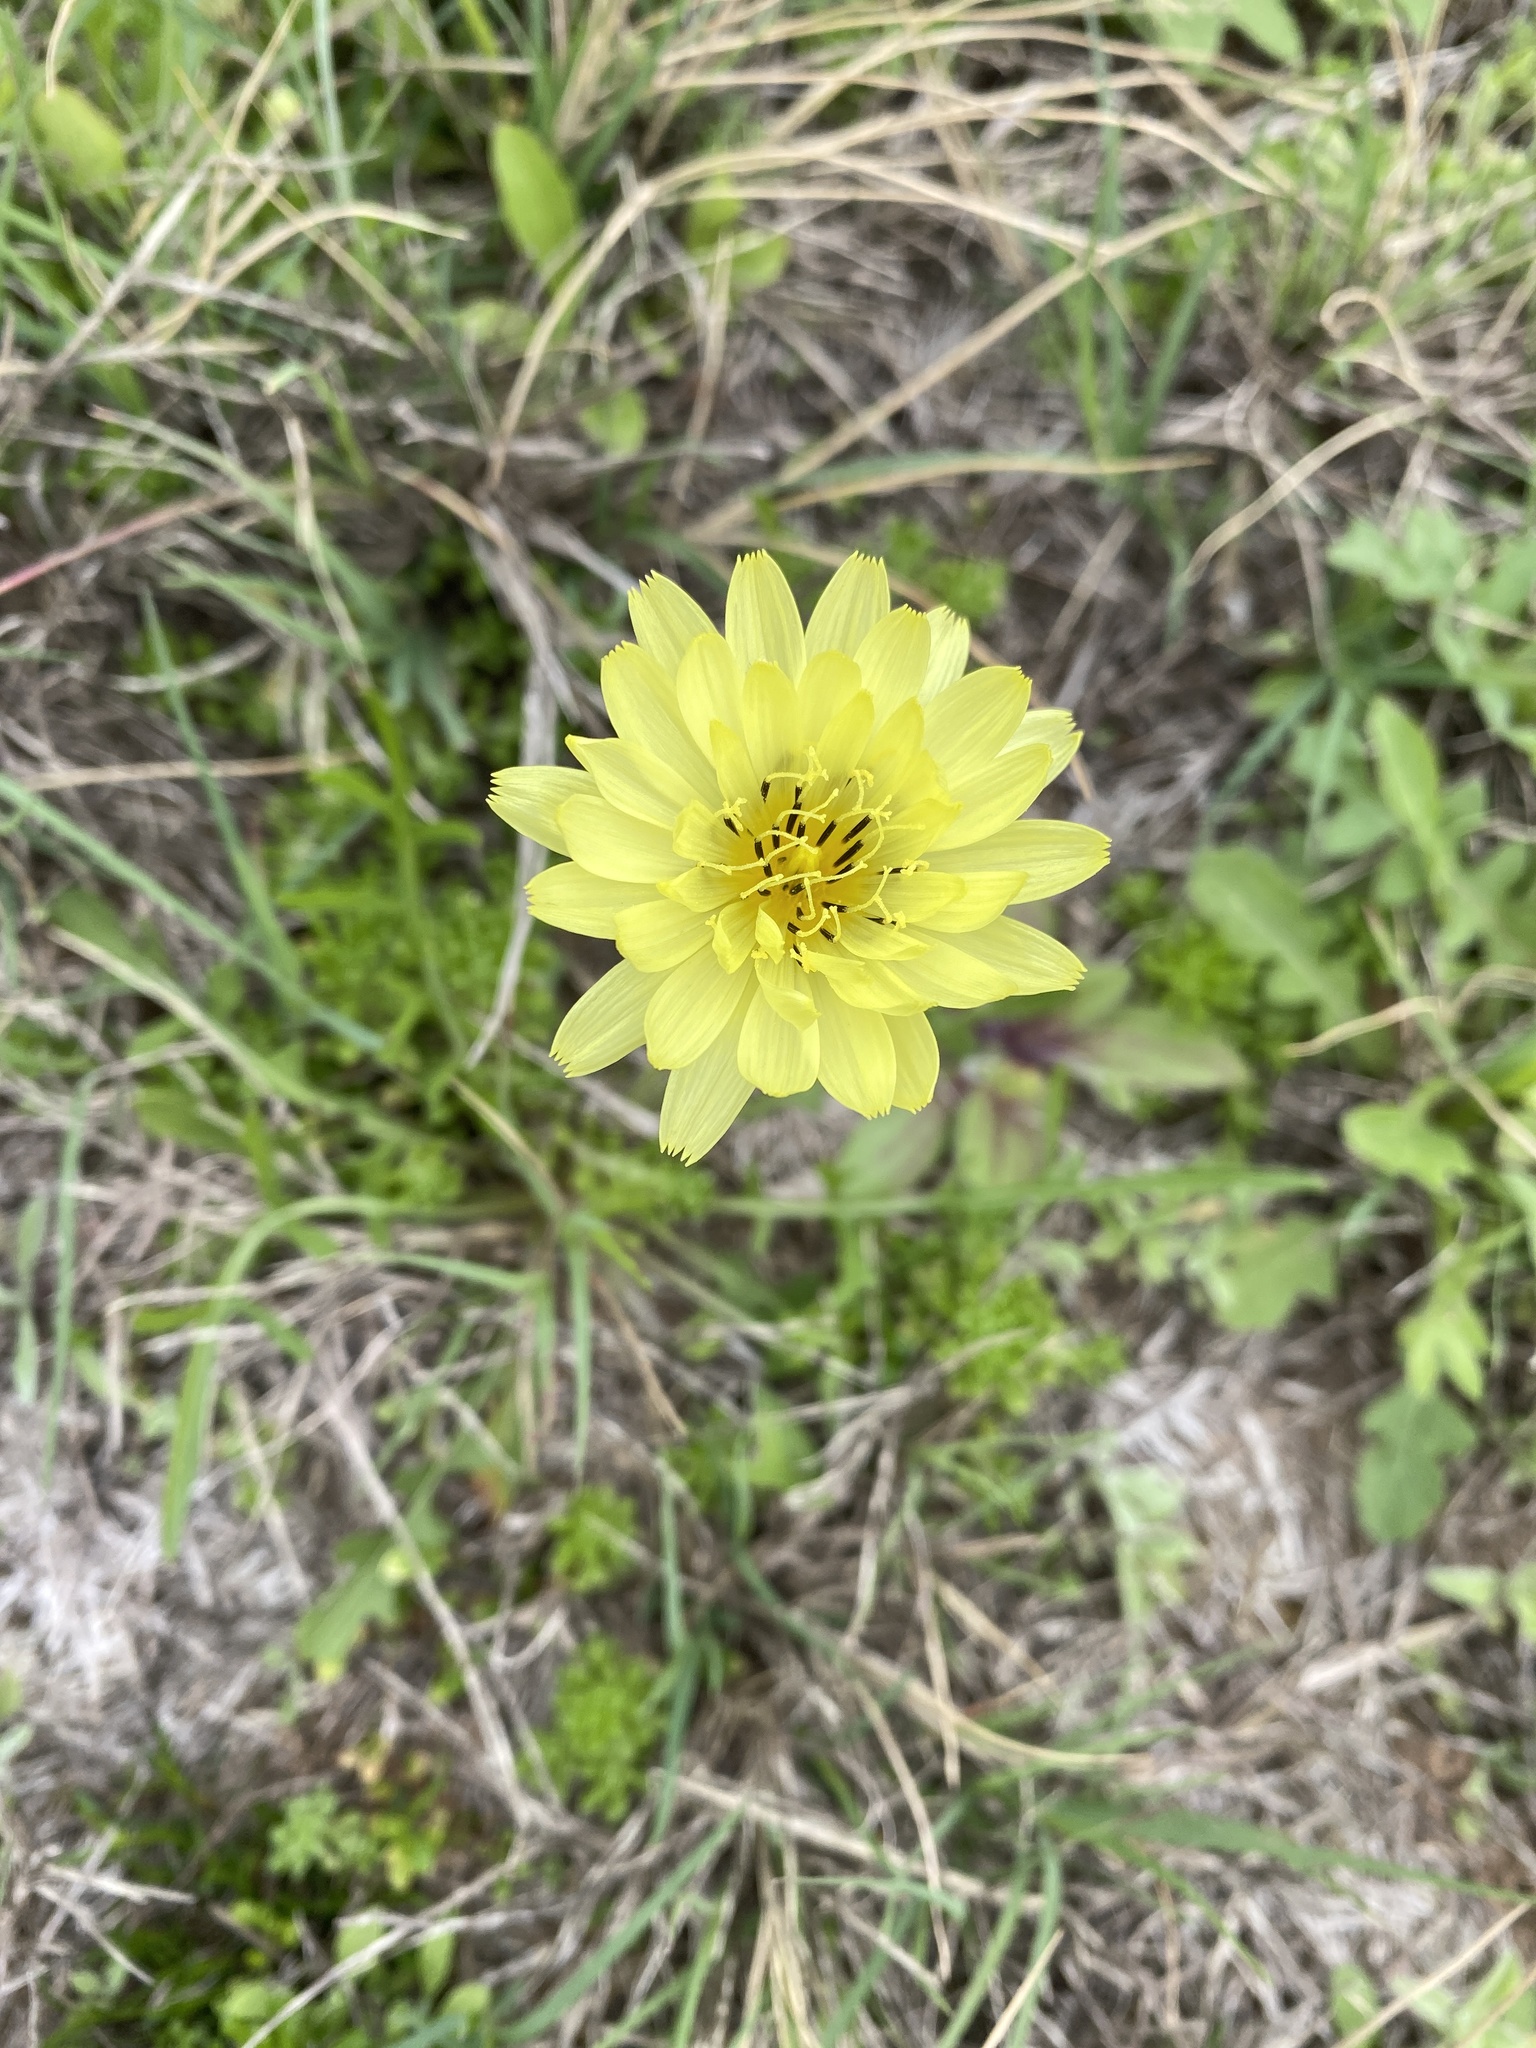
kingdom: Plantae
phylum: Tracheophyta
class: Magnoliopsida
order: Asterales
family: Asteraceae
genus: Pyrrhopappus
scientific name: Pyrrhopappus pauciflorus
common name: Texas false dandelion
